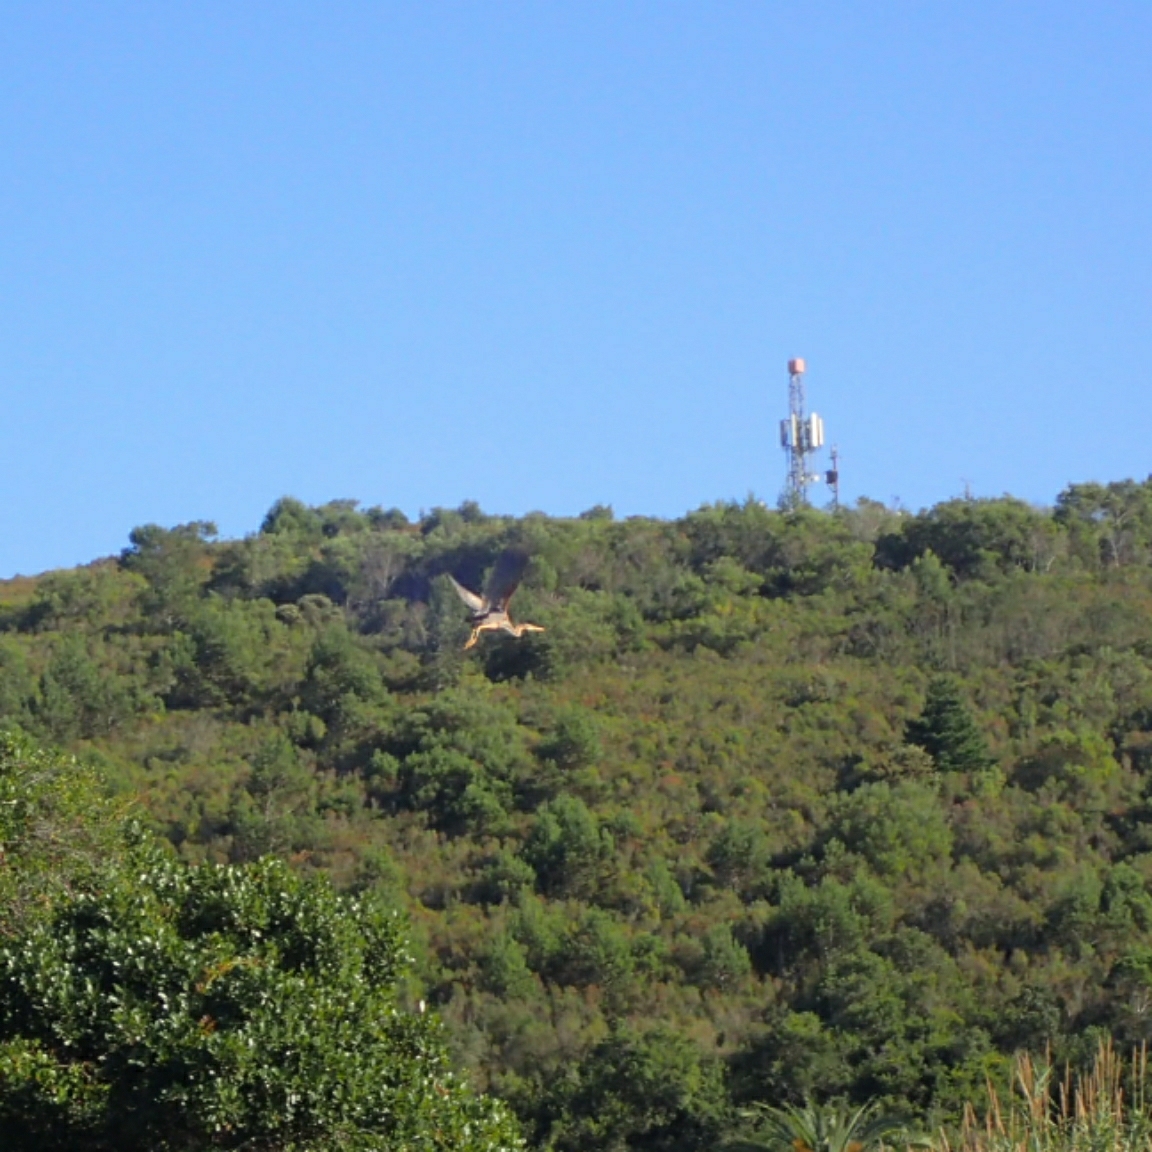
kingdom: Animalia
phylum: Chordata
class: Aves
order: Pelecaniformes
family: Ardeidae
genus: Ardea
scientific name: Ardea purpurea
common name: Purple heron
